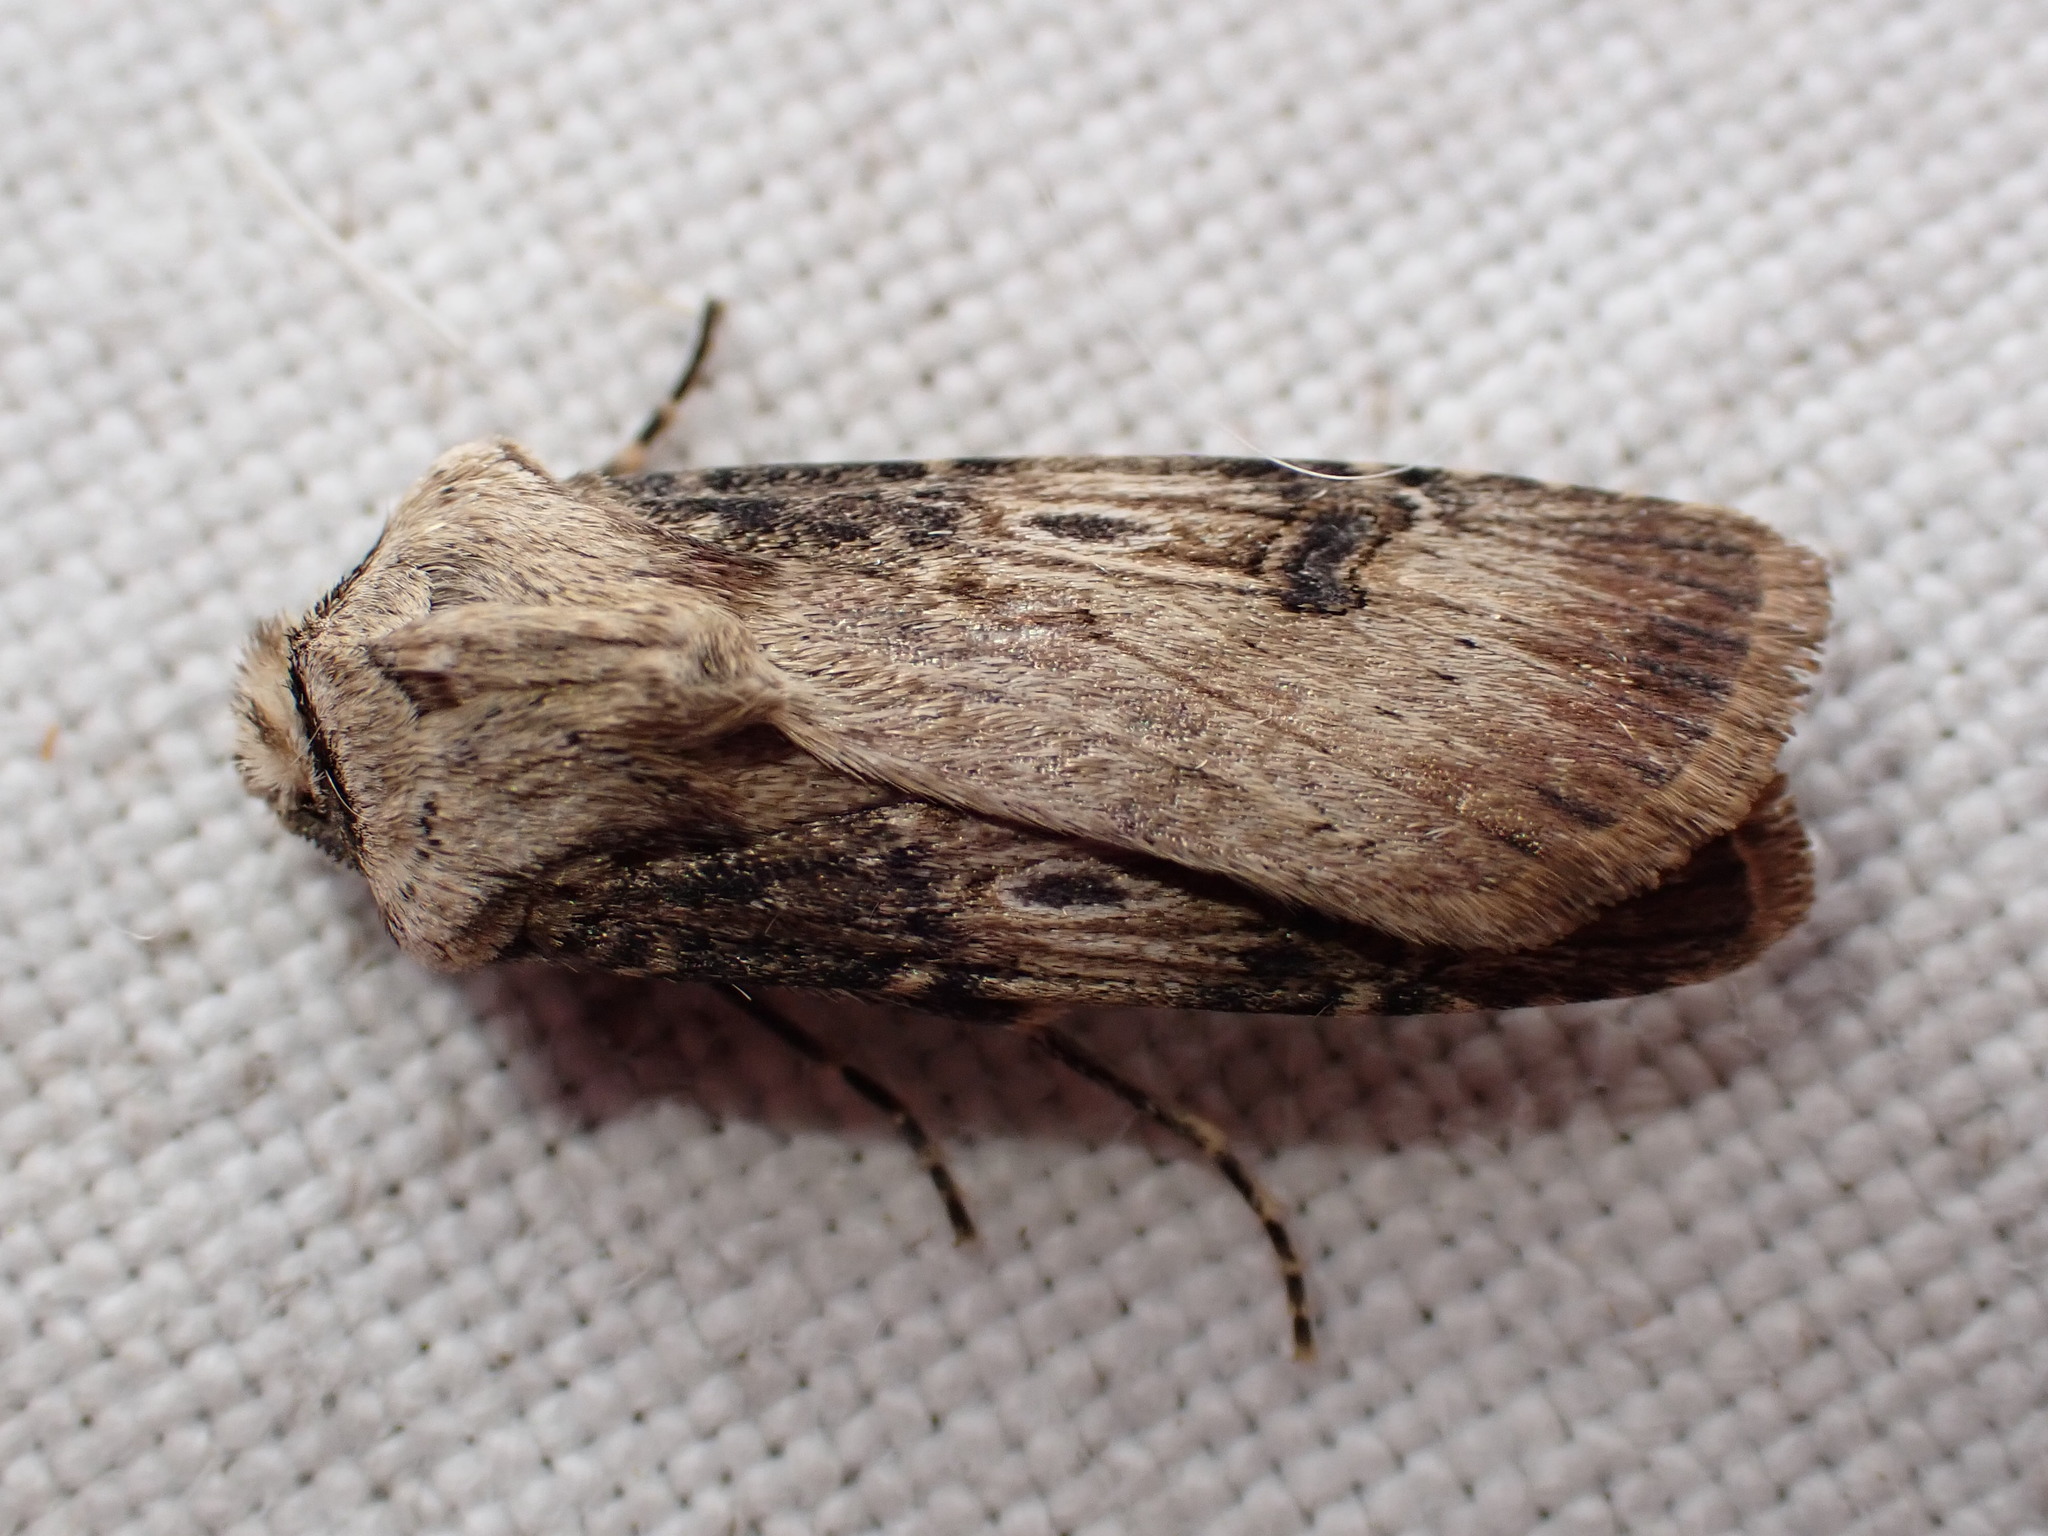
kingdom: Animalia
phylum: Arthropoda
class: Insecta
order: Lepidoptera
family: Noctuidae
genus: Agrotis
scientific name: Agrotis puta
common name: Shuttle-shaped dart
